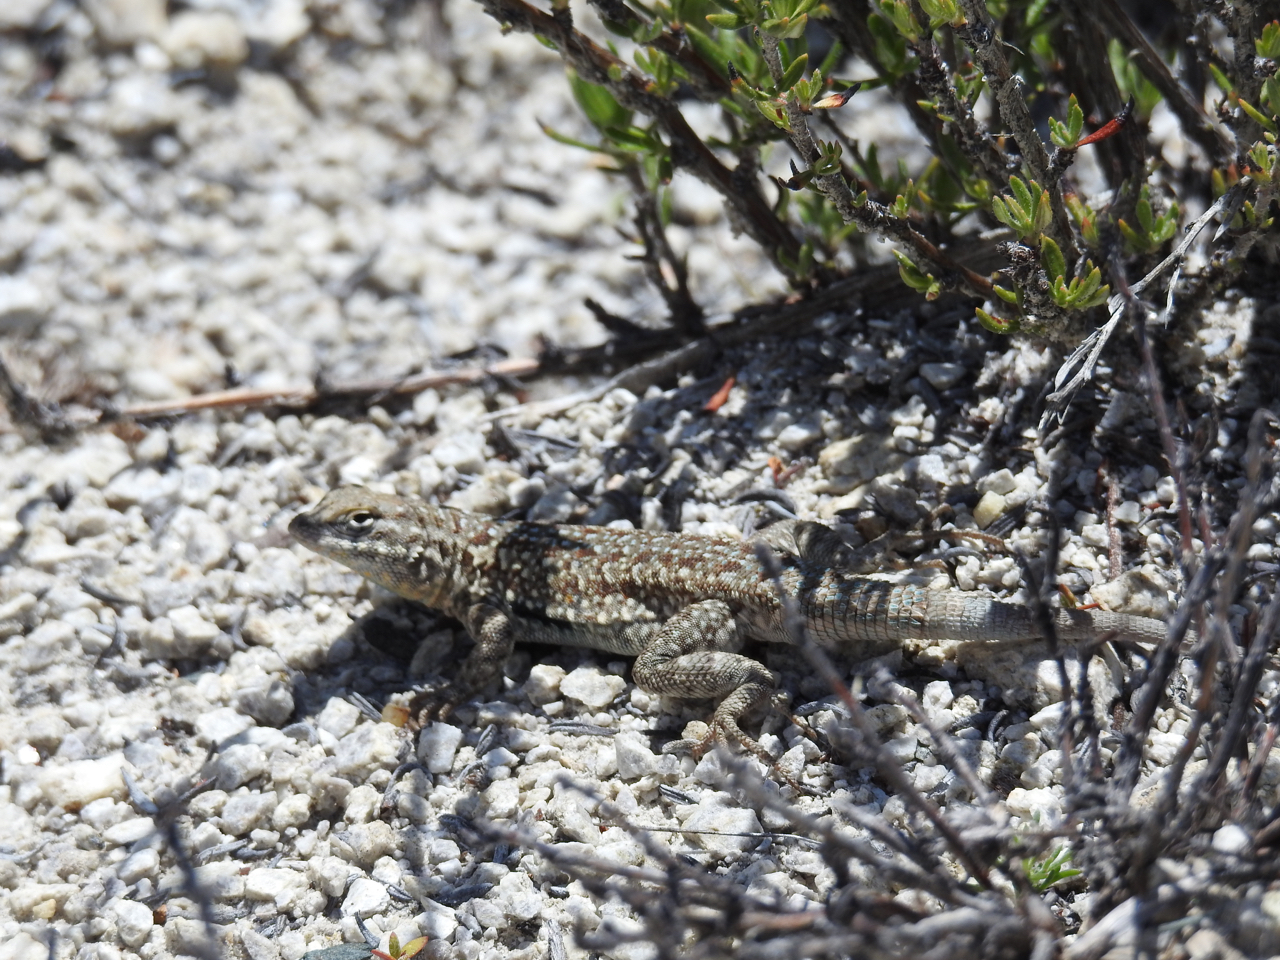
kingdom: Animalia
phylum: Chordata
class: Squamata
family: Phrynosomatidae
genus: Uta
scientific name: Uta stansburiana
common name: Side-blotched lizard
